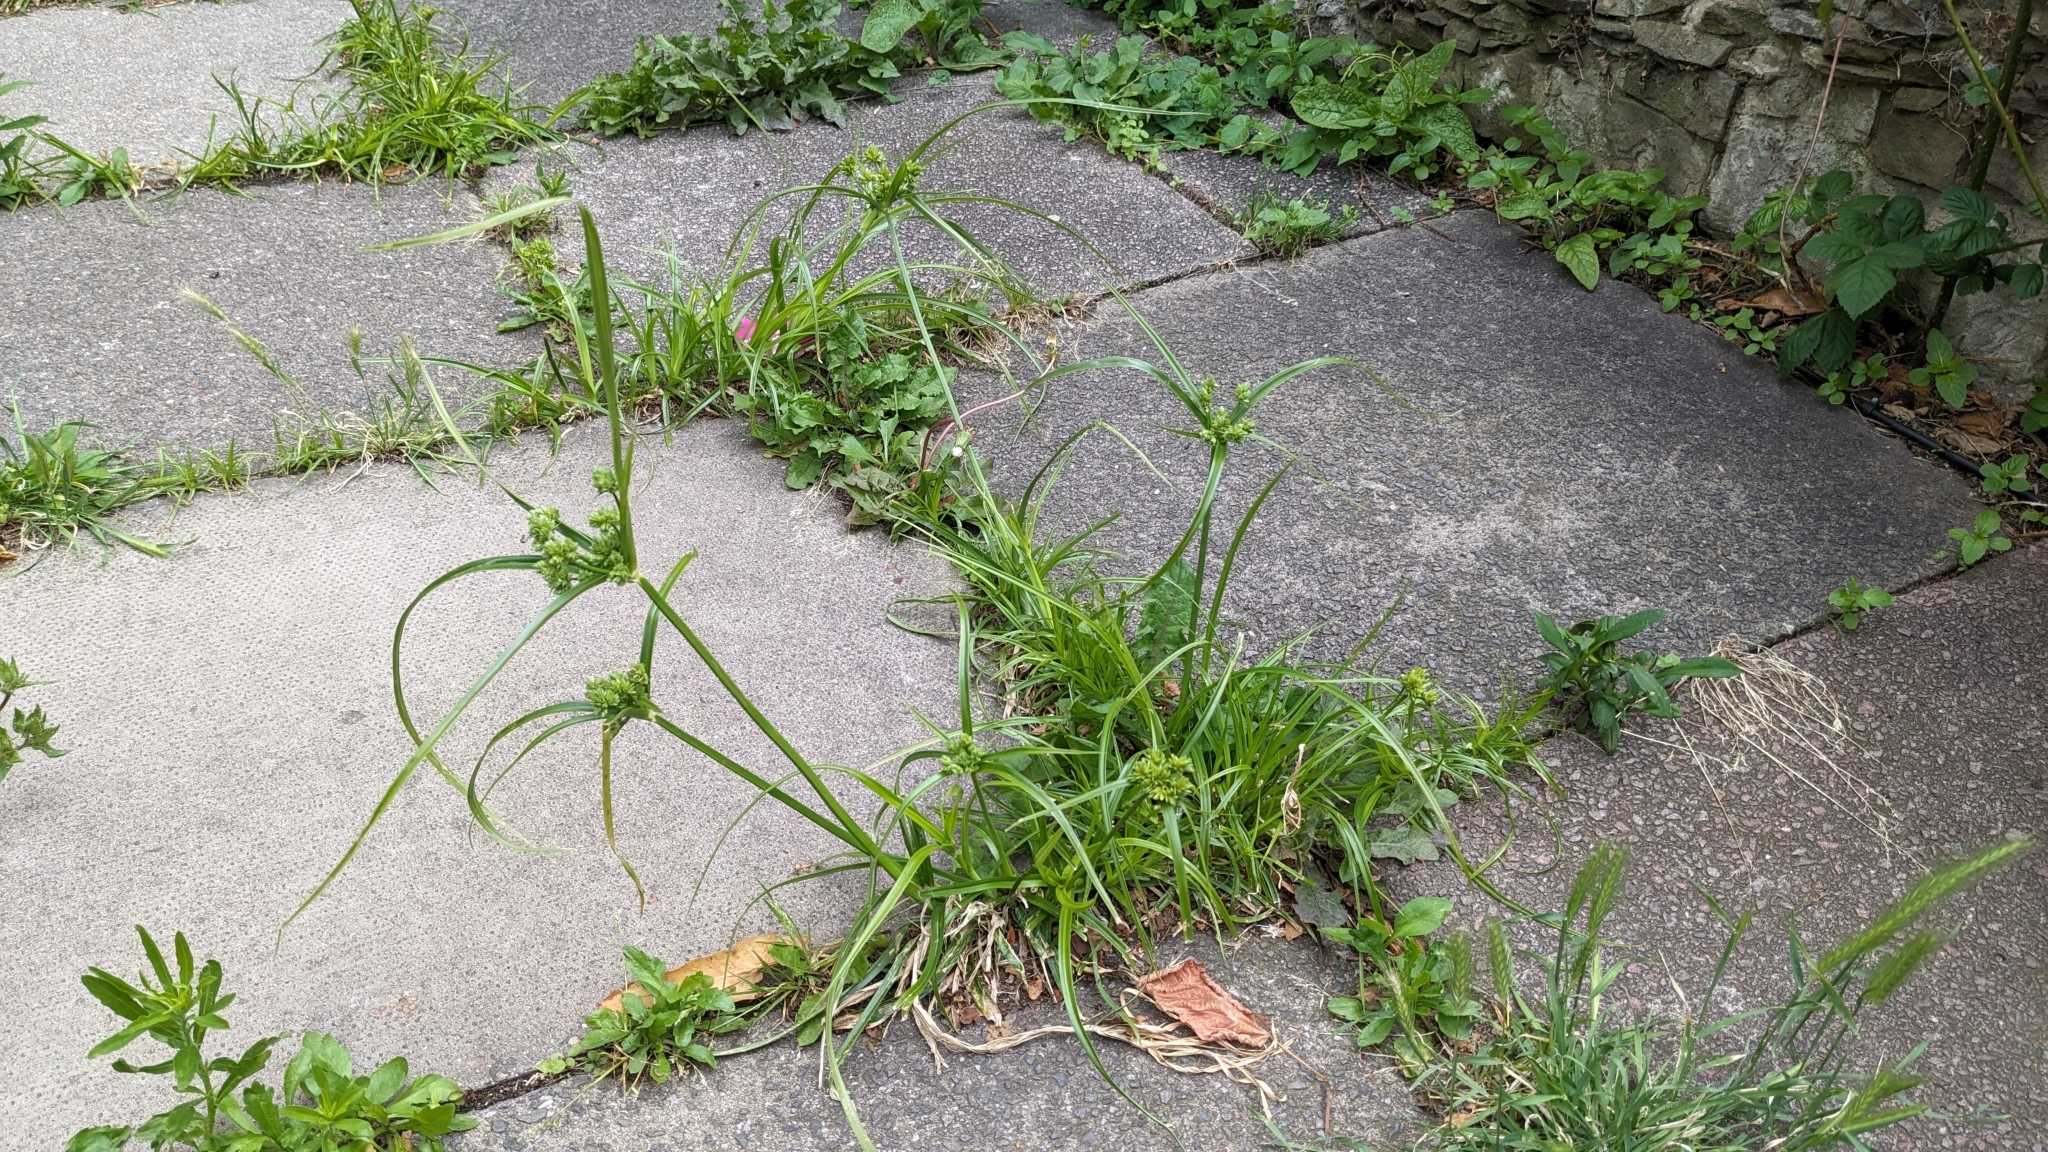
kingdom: Plantae
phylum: Tracheophyta
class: Liliopsida
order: Poales
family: Cyperaceae
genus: Cyperus
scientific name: Cyperus eragrostis
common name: Tall flatsedge
